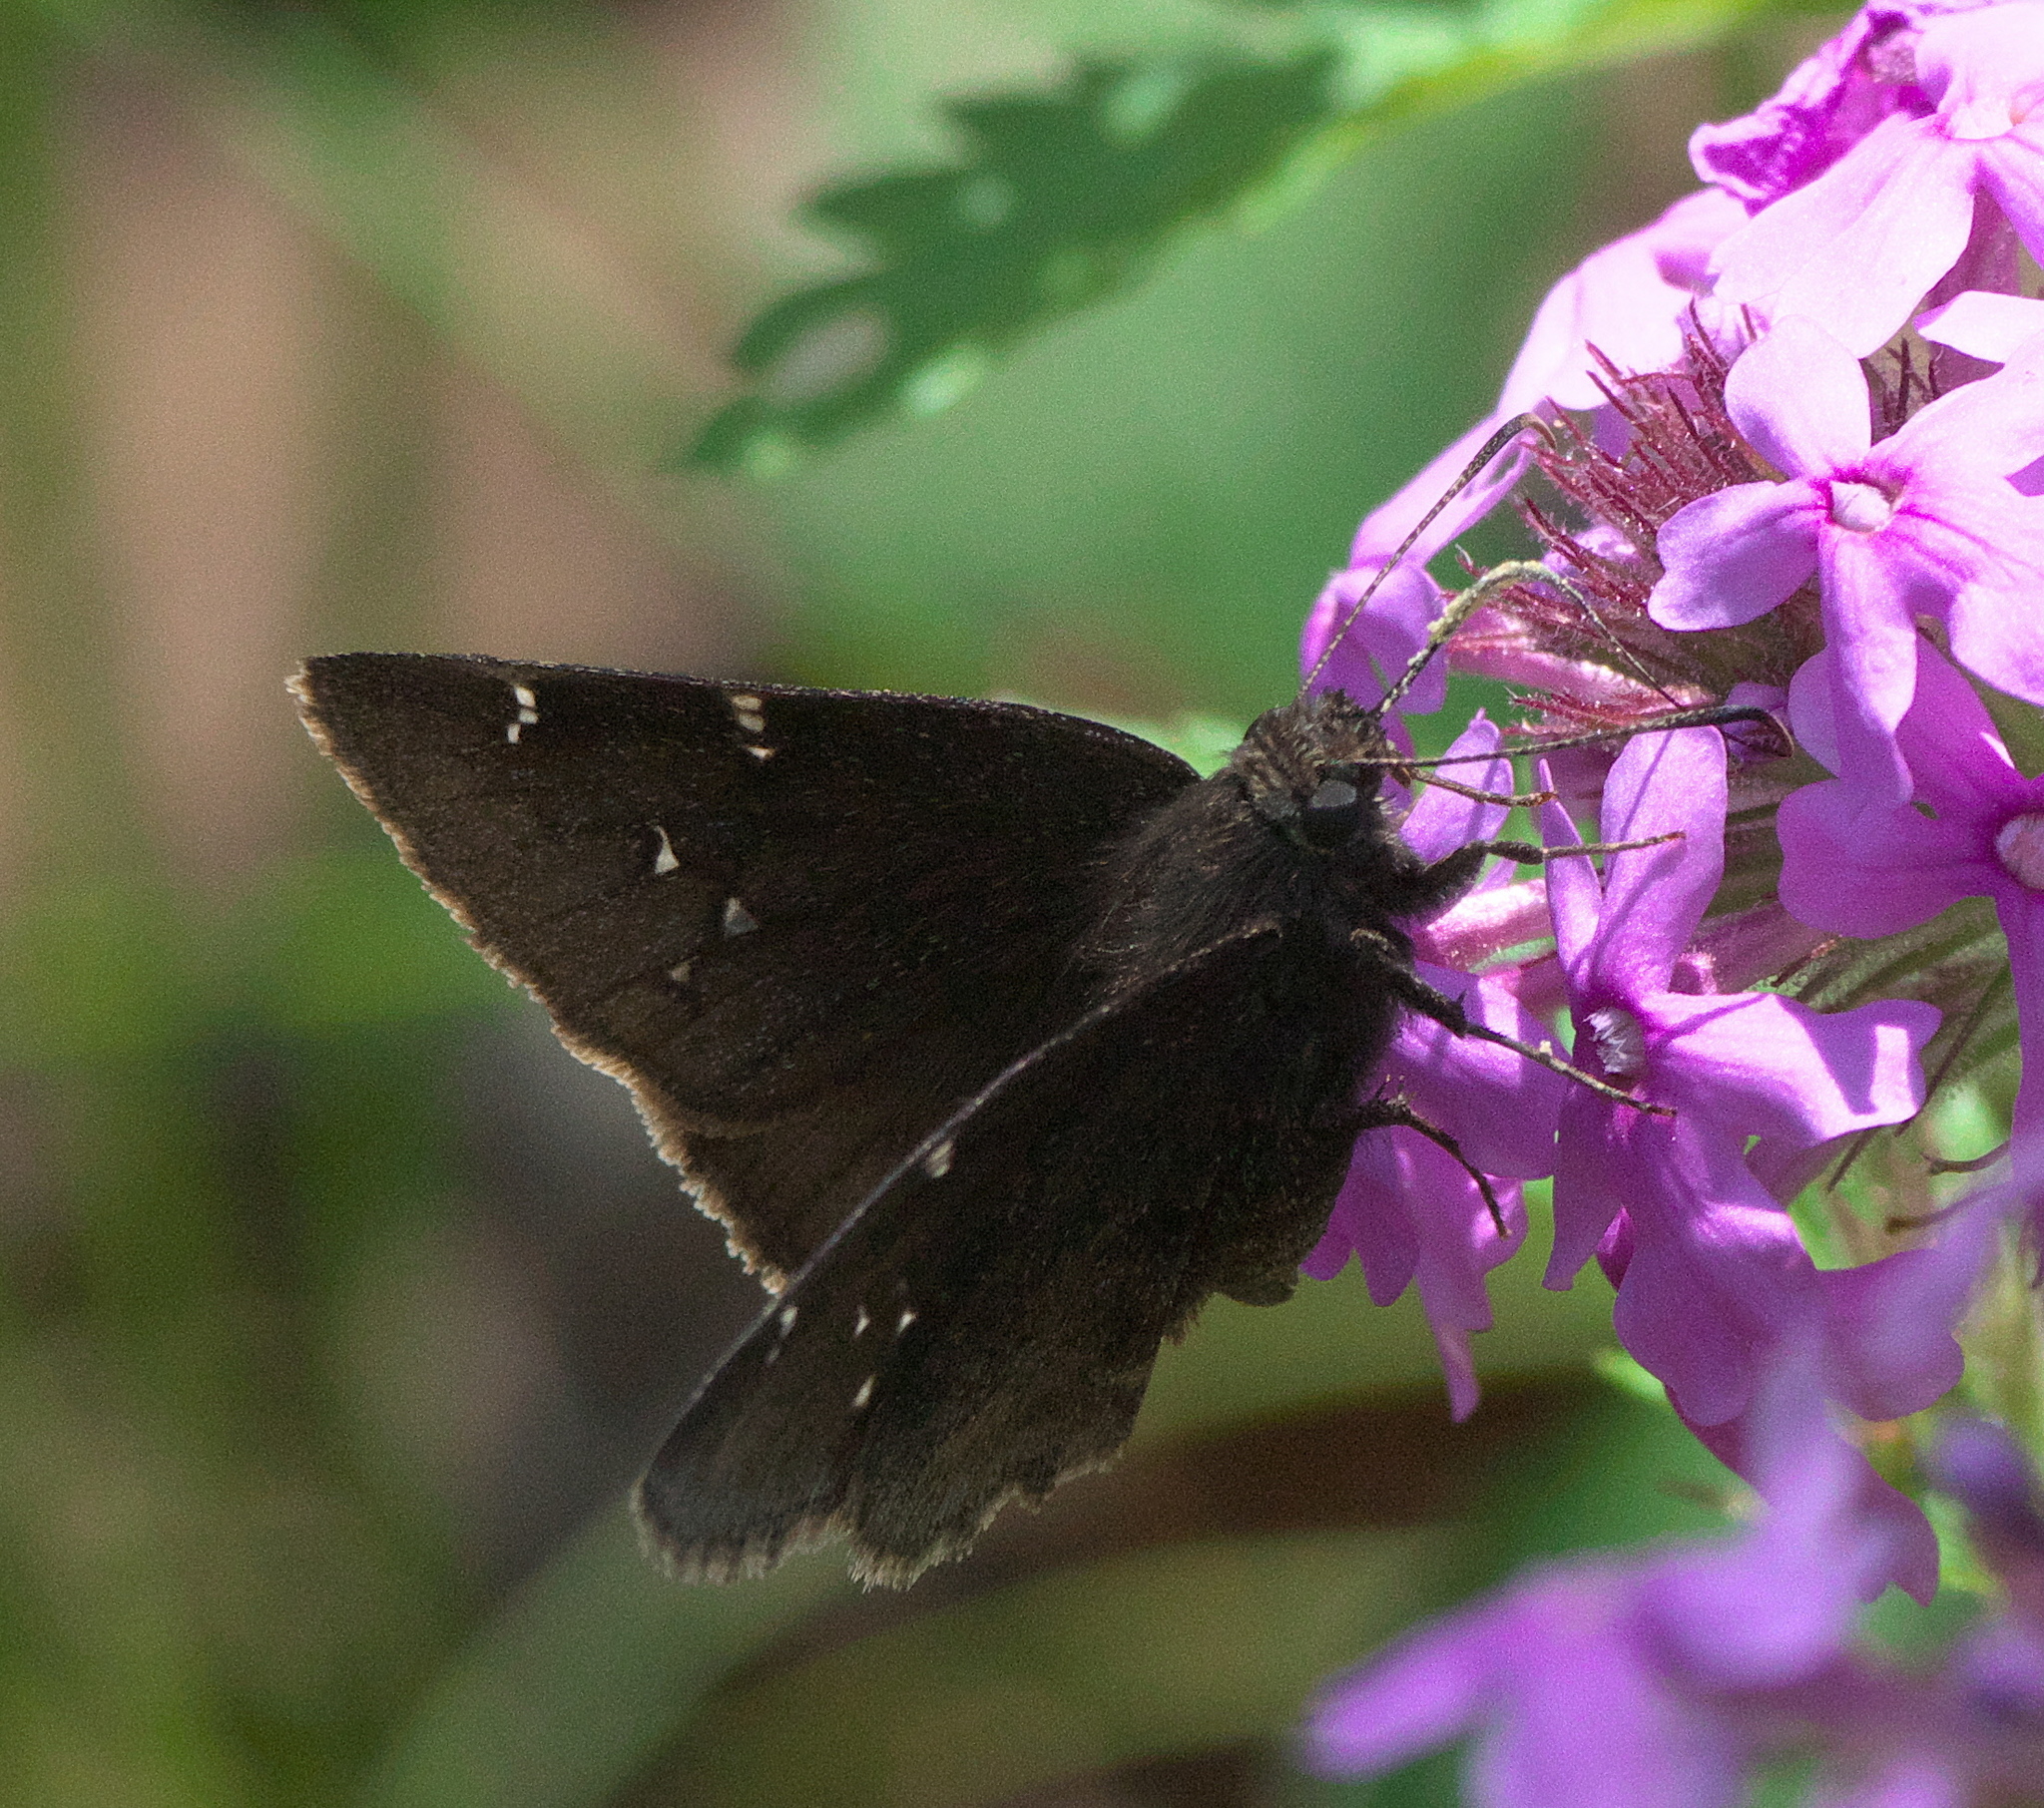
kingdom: Animalia
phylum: Arthropoda
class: Insecta
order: Lepidoptera
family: Hesperiidae
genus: Thorybes
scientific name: Thorybes pylades
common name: Northern cloudywing
